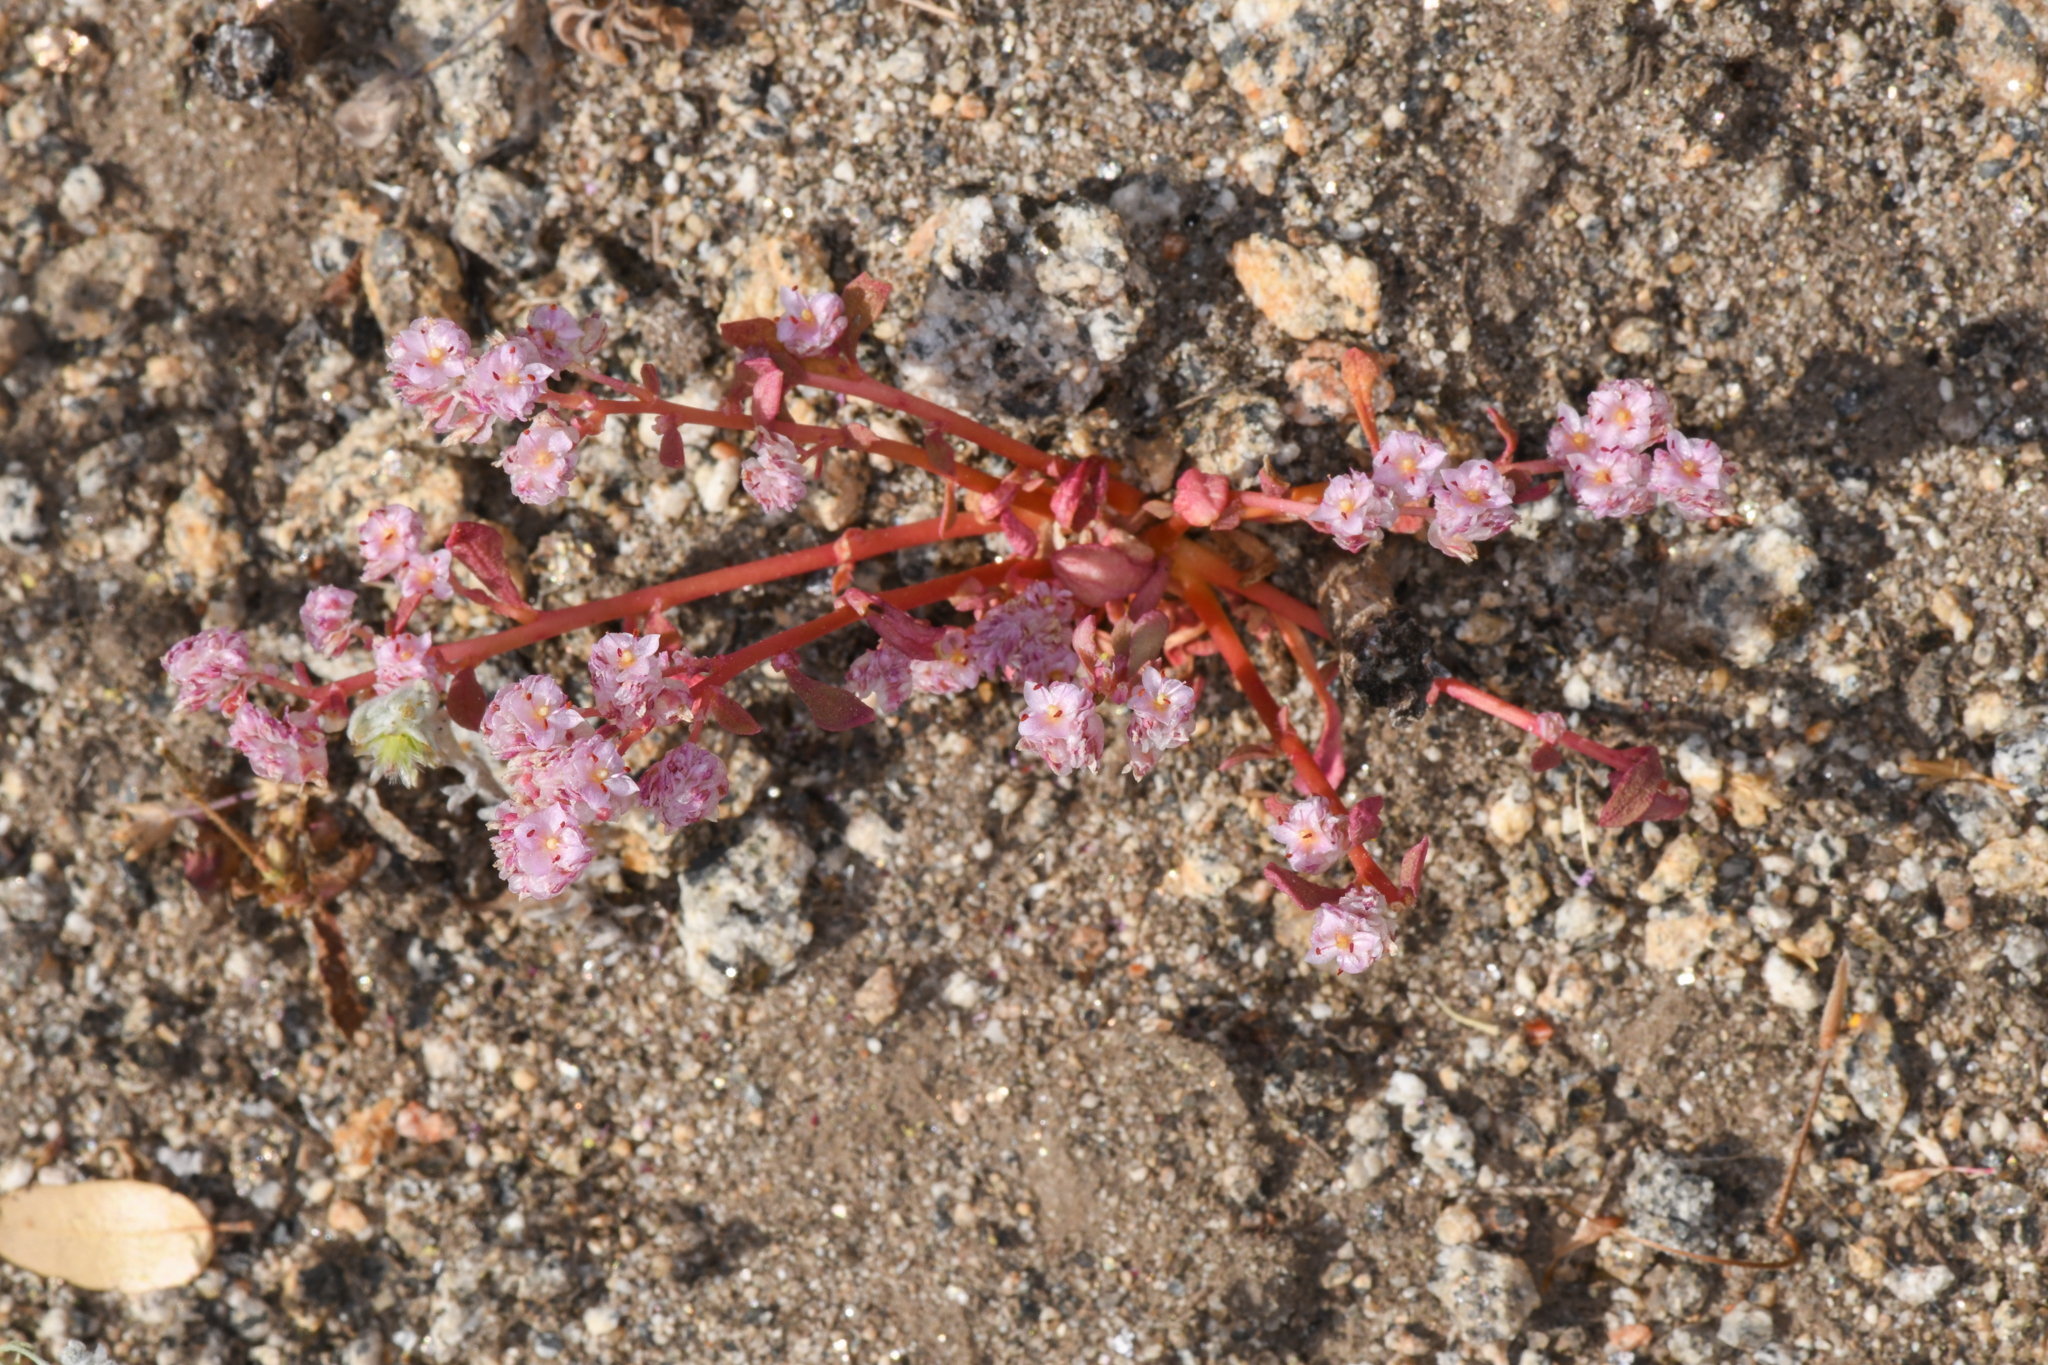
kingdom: Plantae
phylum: Tracheophyta
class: Magnoliopsida
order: Caryophyllales
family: Montiaceae
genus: Calyptridium
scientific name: Calyptridium pulchellum
